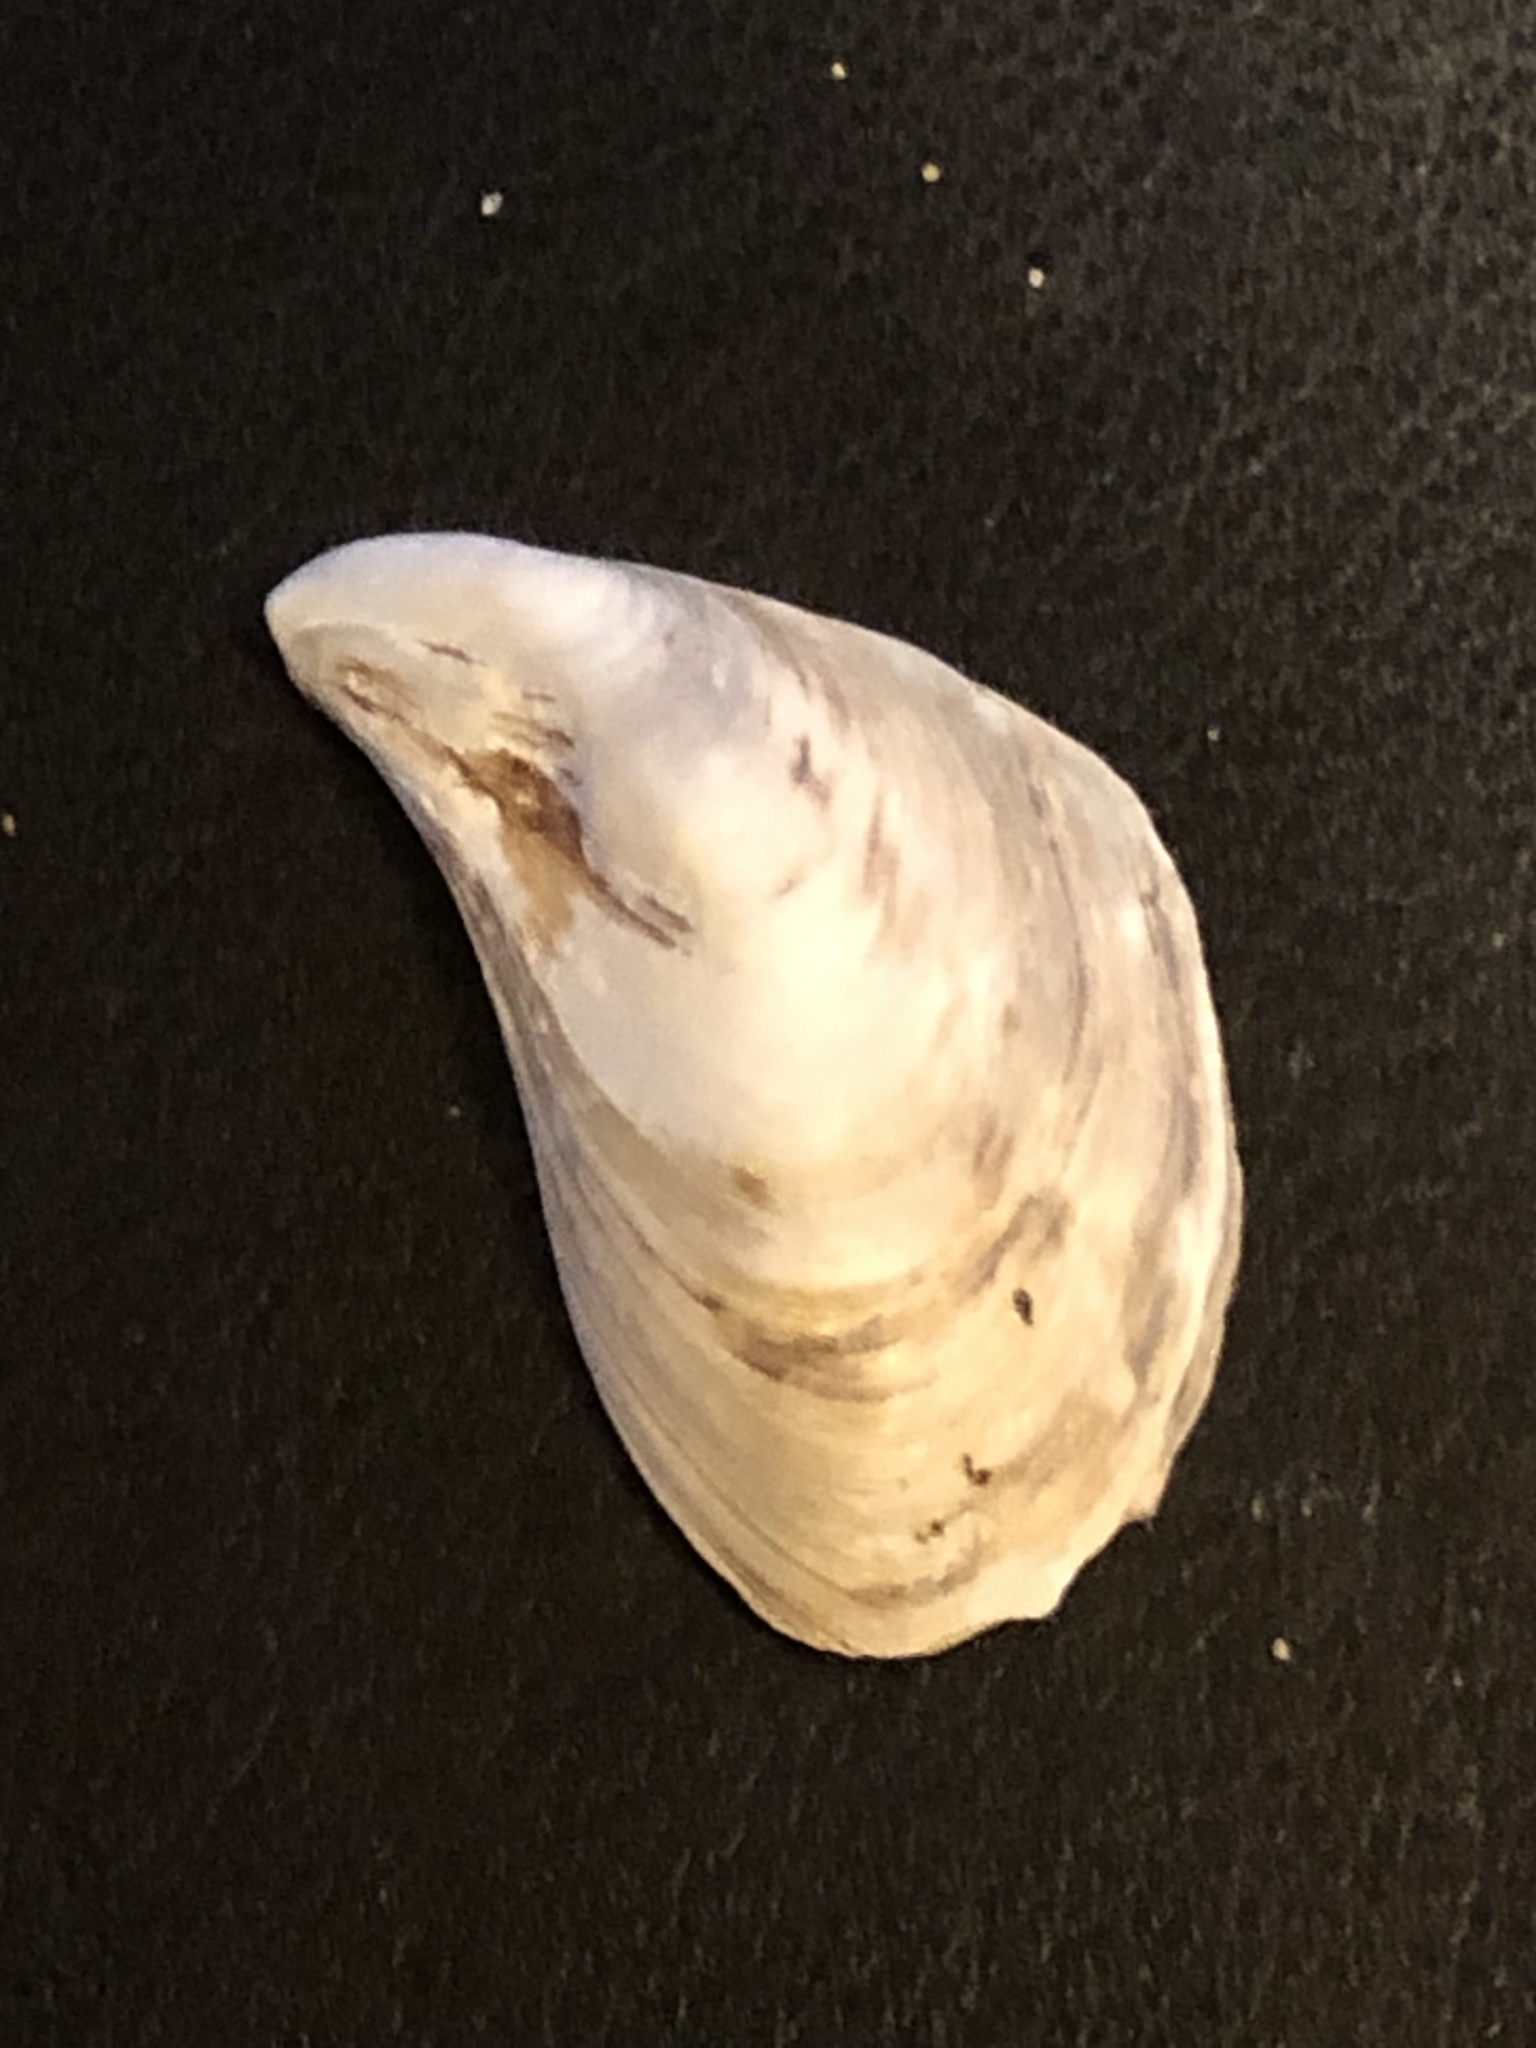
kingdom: Animalia
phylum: Mollusca
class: Bivalvia
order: Myida
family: Dreissenidae
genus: Dreissena
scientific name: Dreissena bugensis
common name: Quagga mussel
